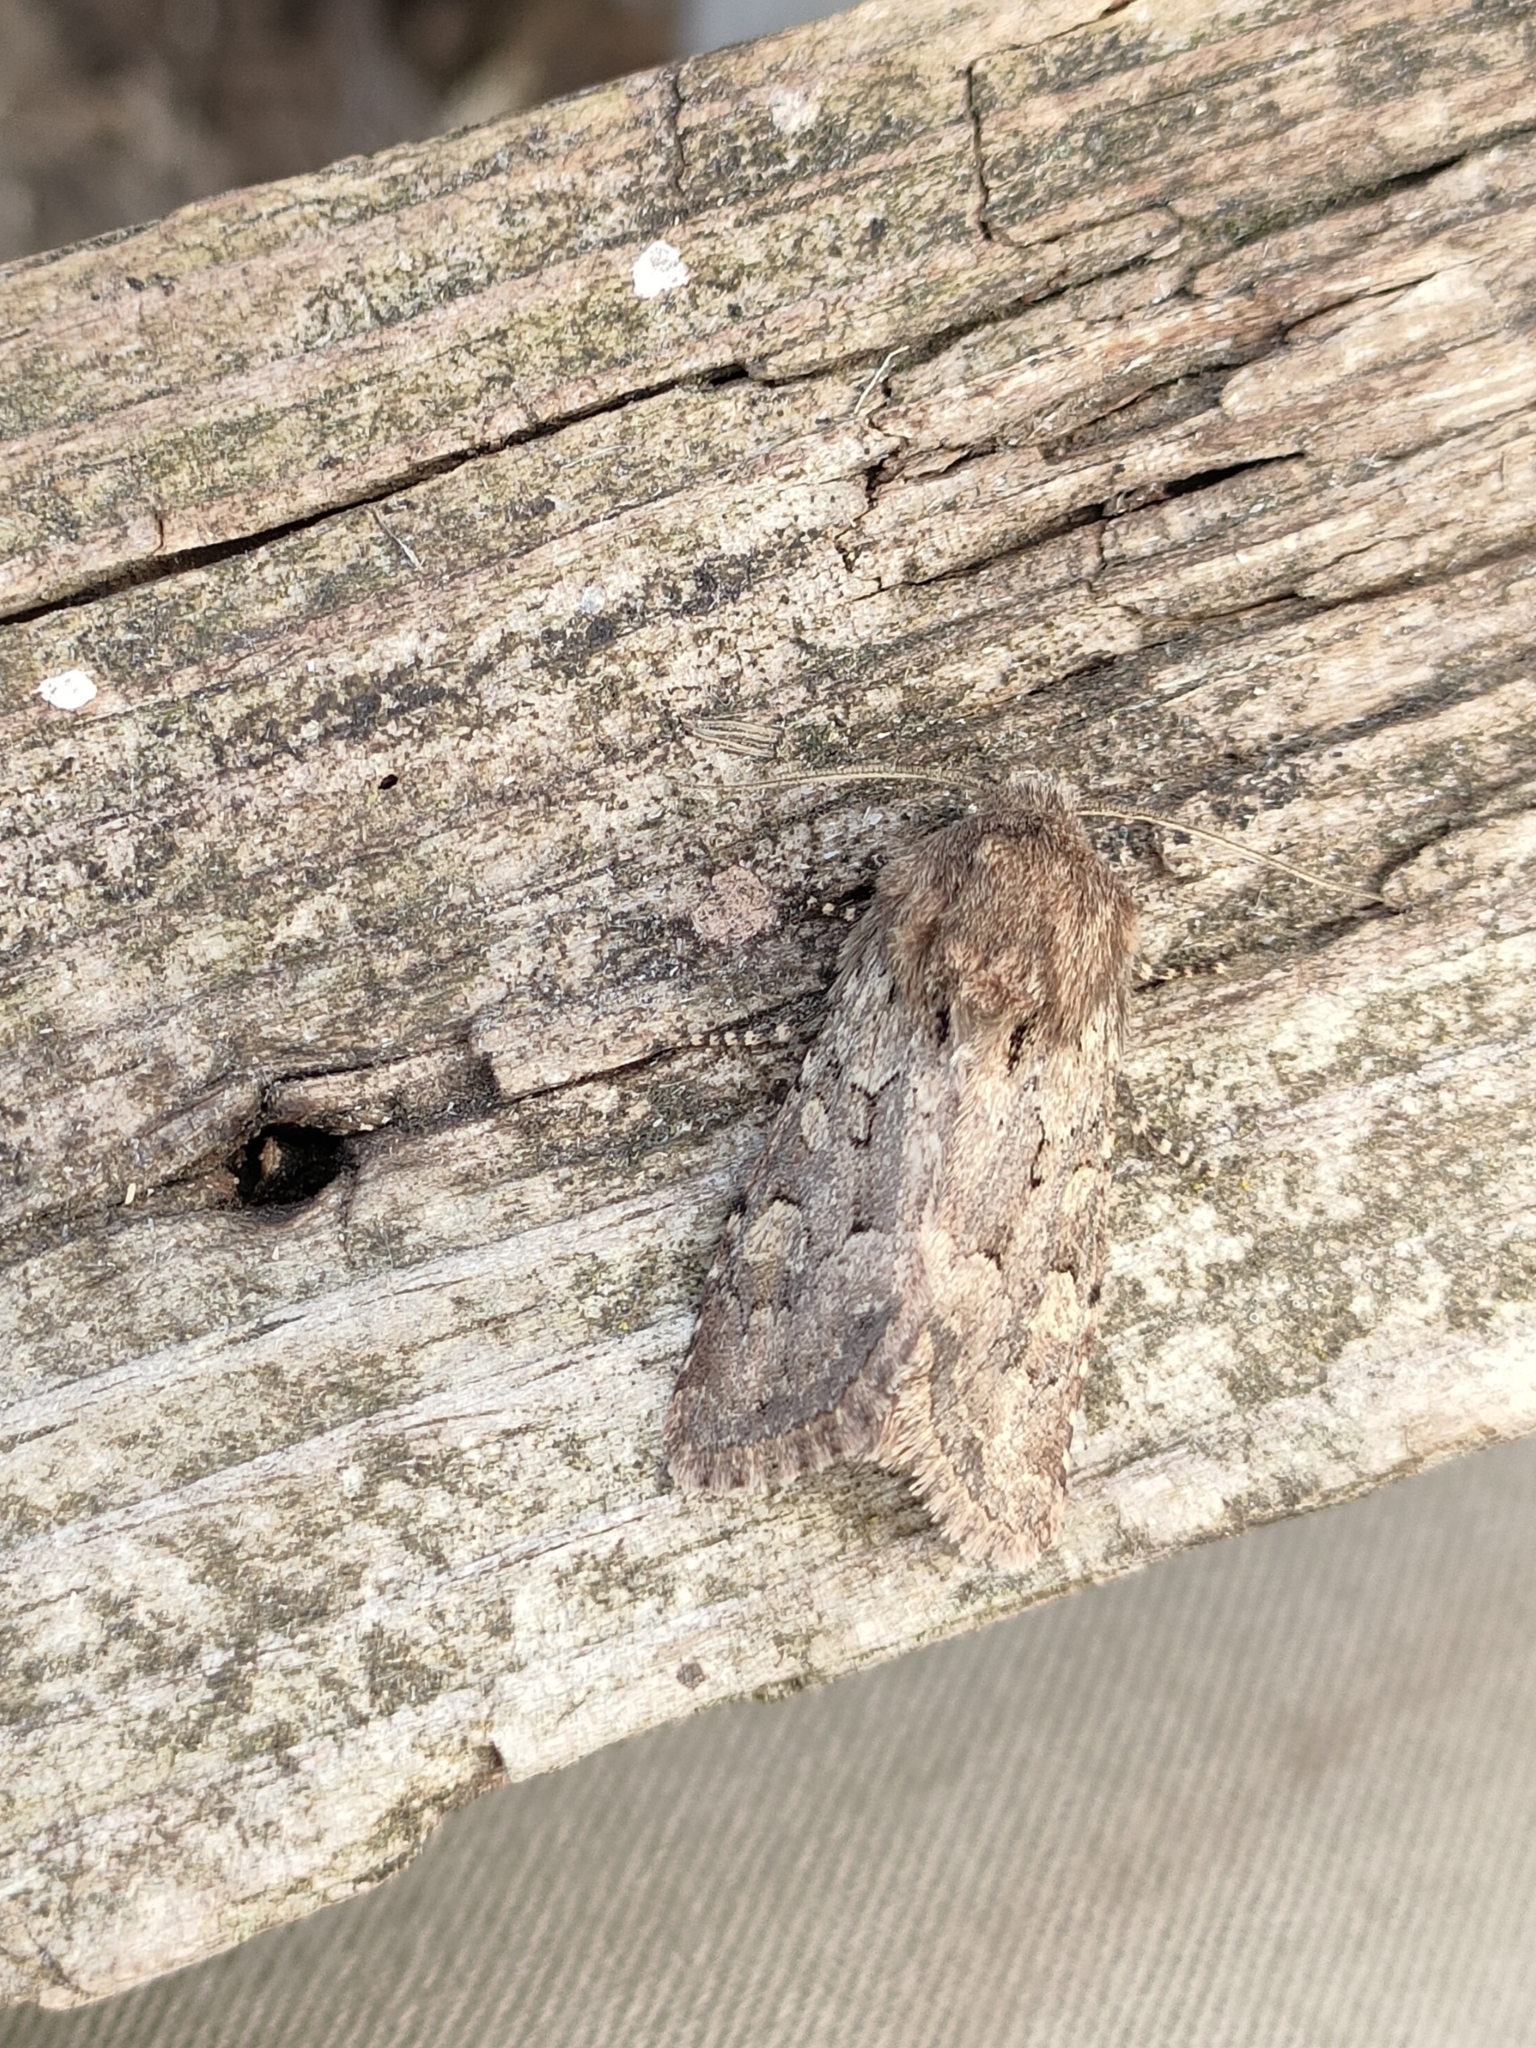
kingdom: Animalia
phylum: Arthropoda
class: Insecta
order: Lepidoptera
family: Noctuidae
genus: Luperina
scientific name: Luperina testacea
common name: Flounced rustic
